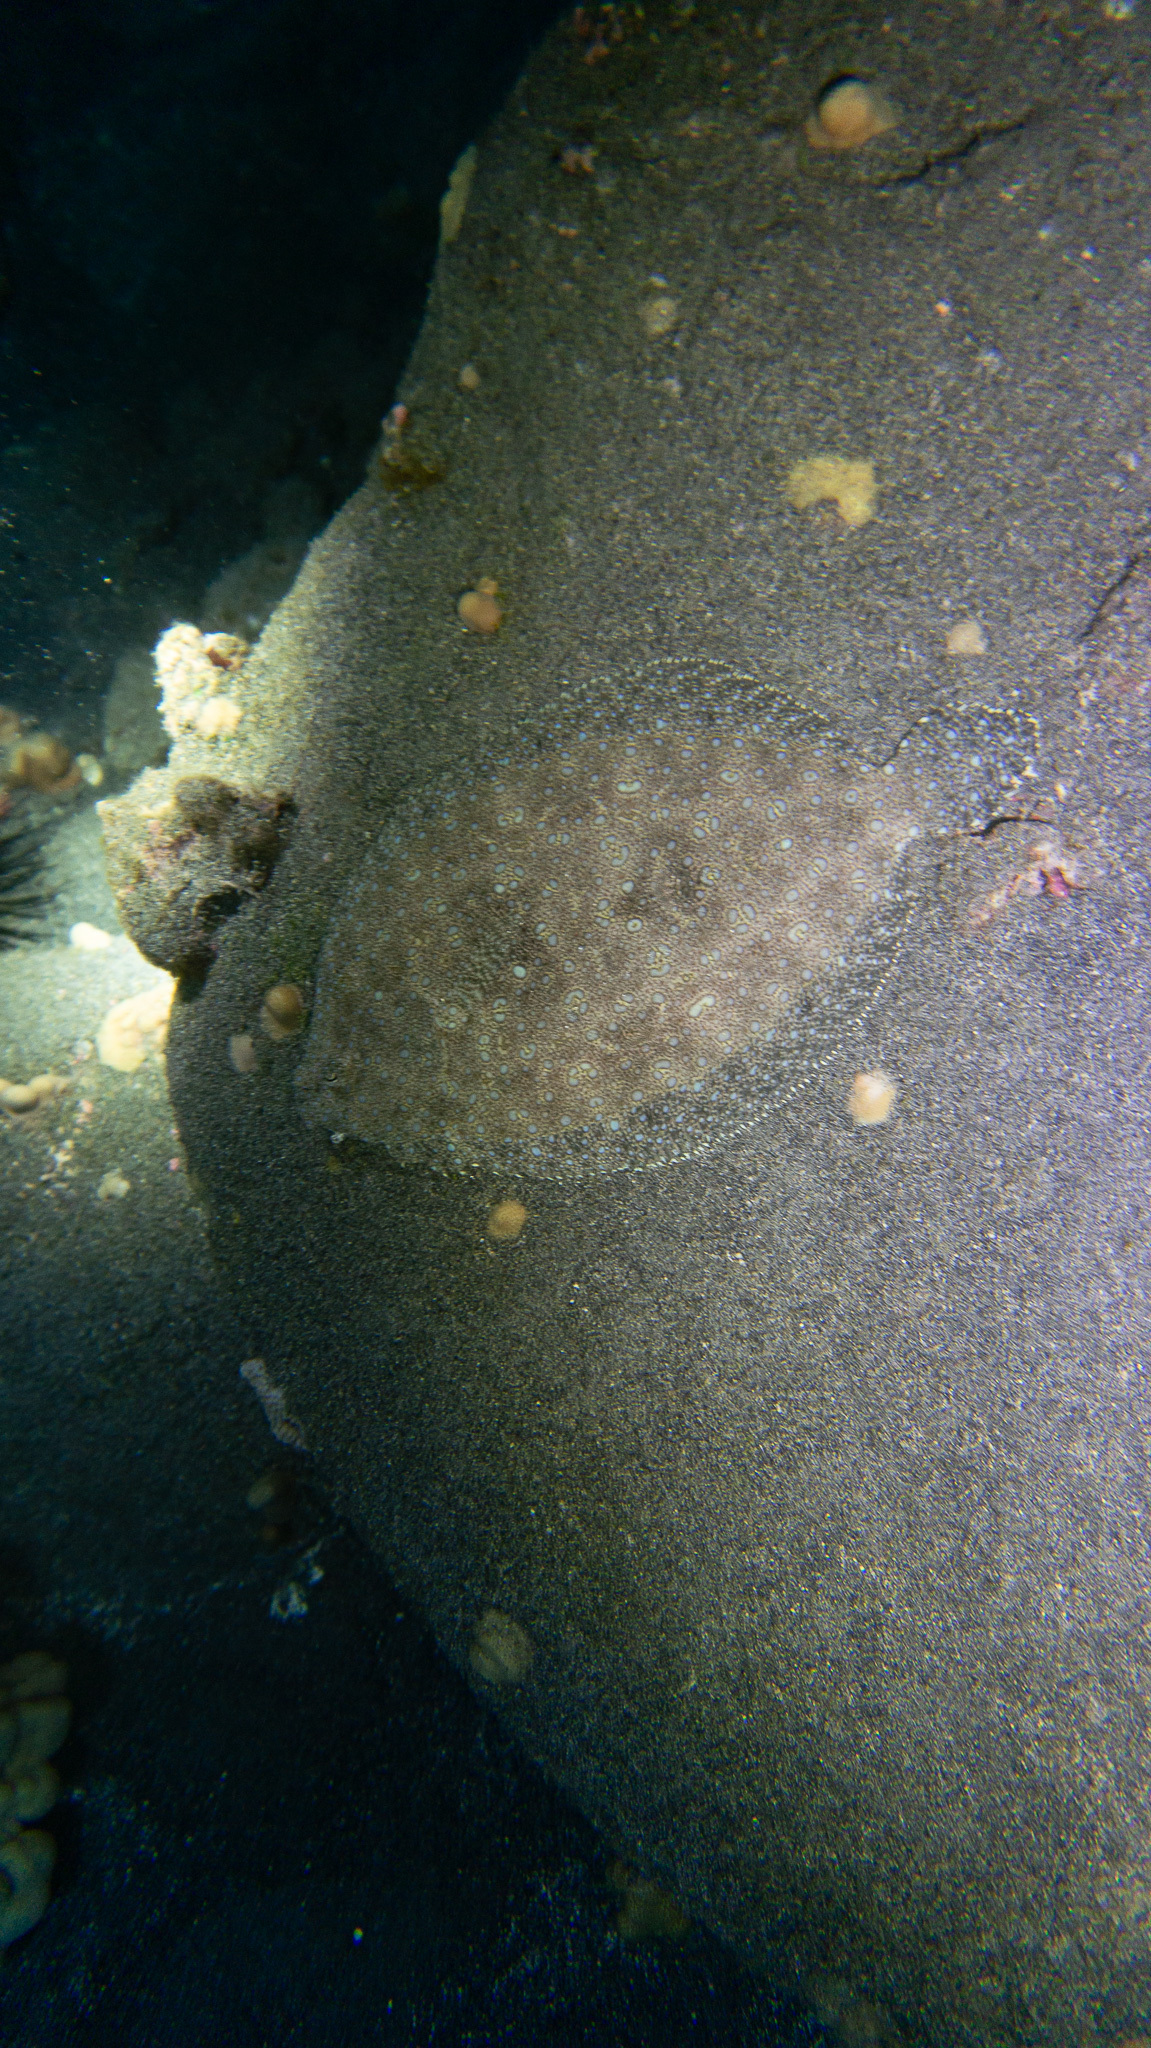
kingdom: Animalia
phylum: Chordata
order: Pleuronectiformes
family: Bothidae
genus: Bothus
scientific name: Bothus mancus
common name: Flowery flounder
